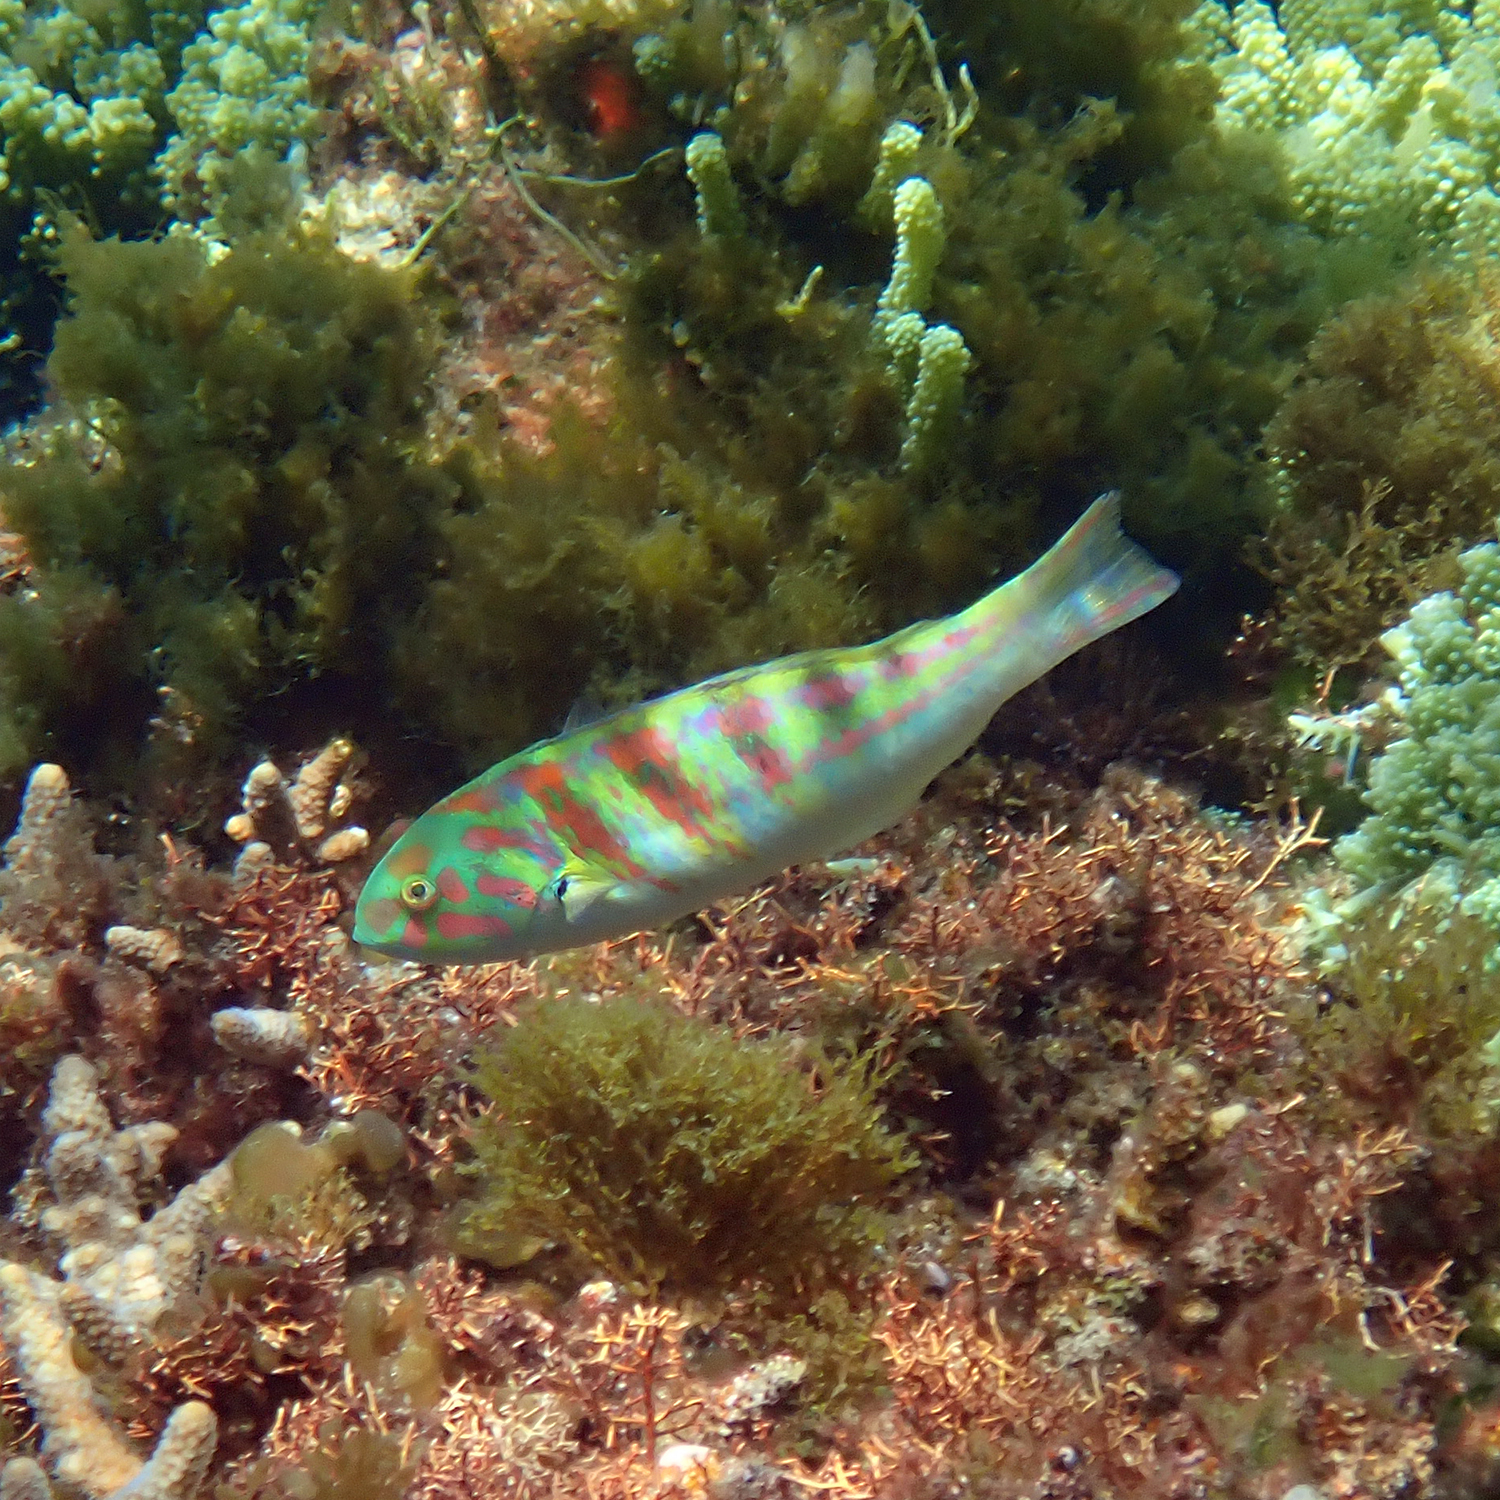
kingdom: Animalia
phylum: Chordata
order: Perciformes
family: Labridae
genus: Thalassoma
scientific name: Thalassoma hardwicke
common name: Sixbar wrasse
